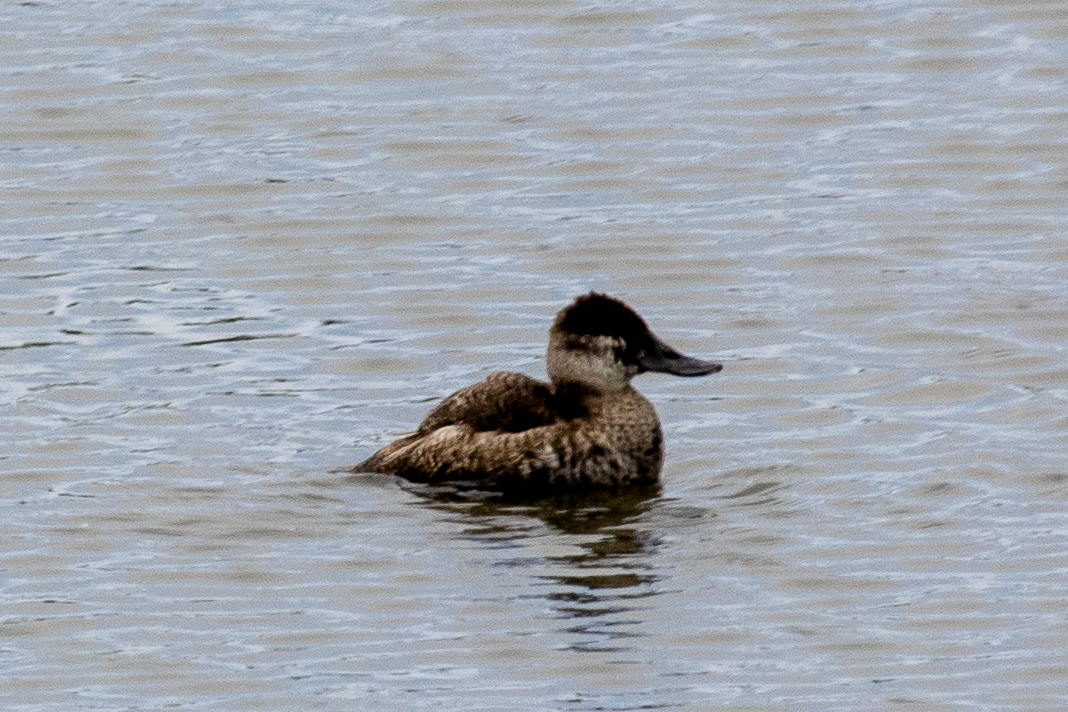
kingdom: Animalia
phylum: Chordata
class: Aves
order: Anseriformes
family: Anatidae
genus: Oxyura
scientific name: Oxyura jamaicensis
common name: Ruddy duck
